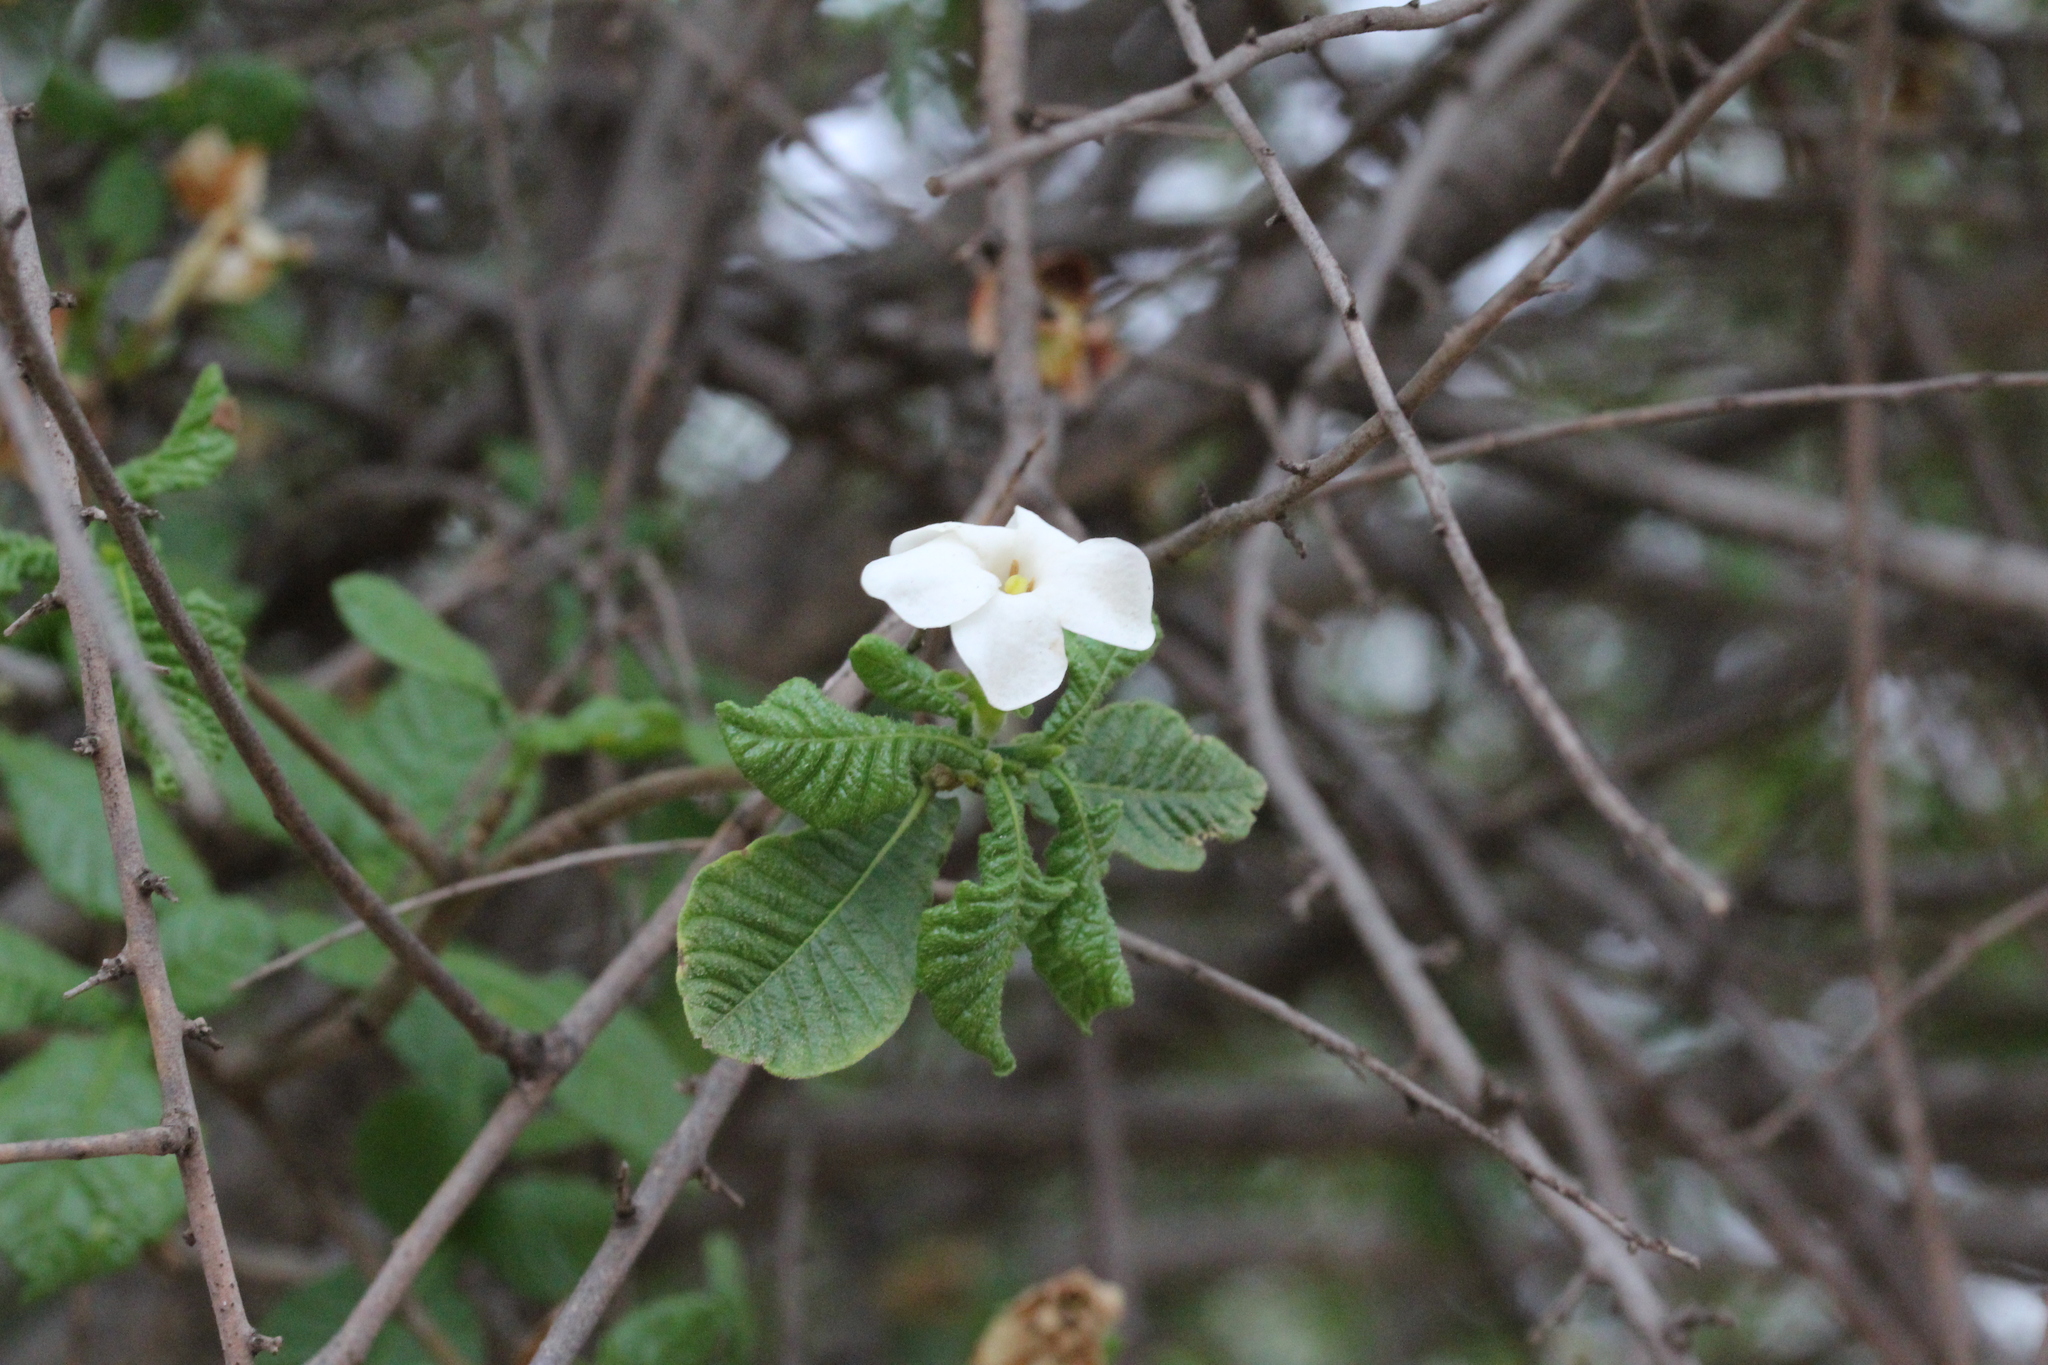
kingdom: Plantae
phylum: Tracheophyta
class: Magnoliopsida
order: Gentianales
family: Rubiaceae
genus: Gardenia
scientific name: Gardenia resiniflua
